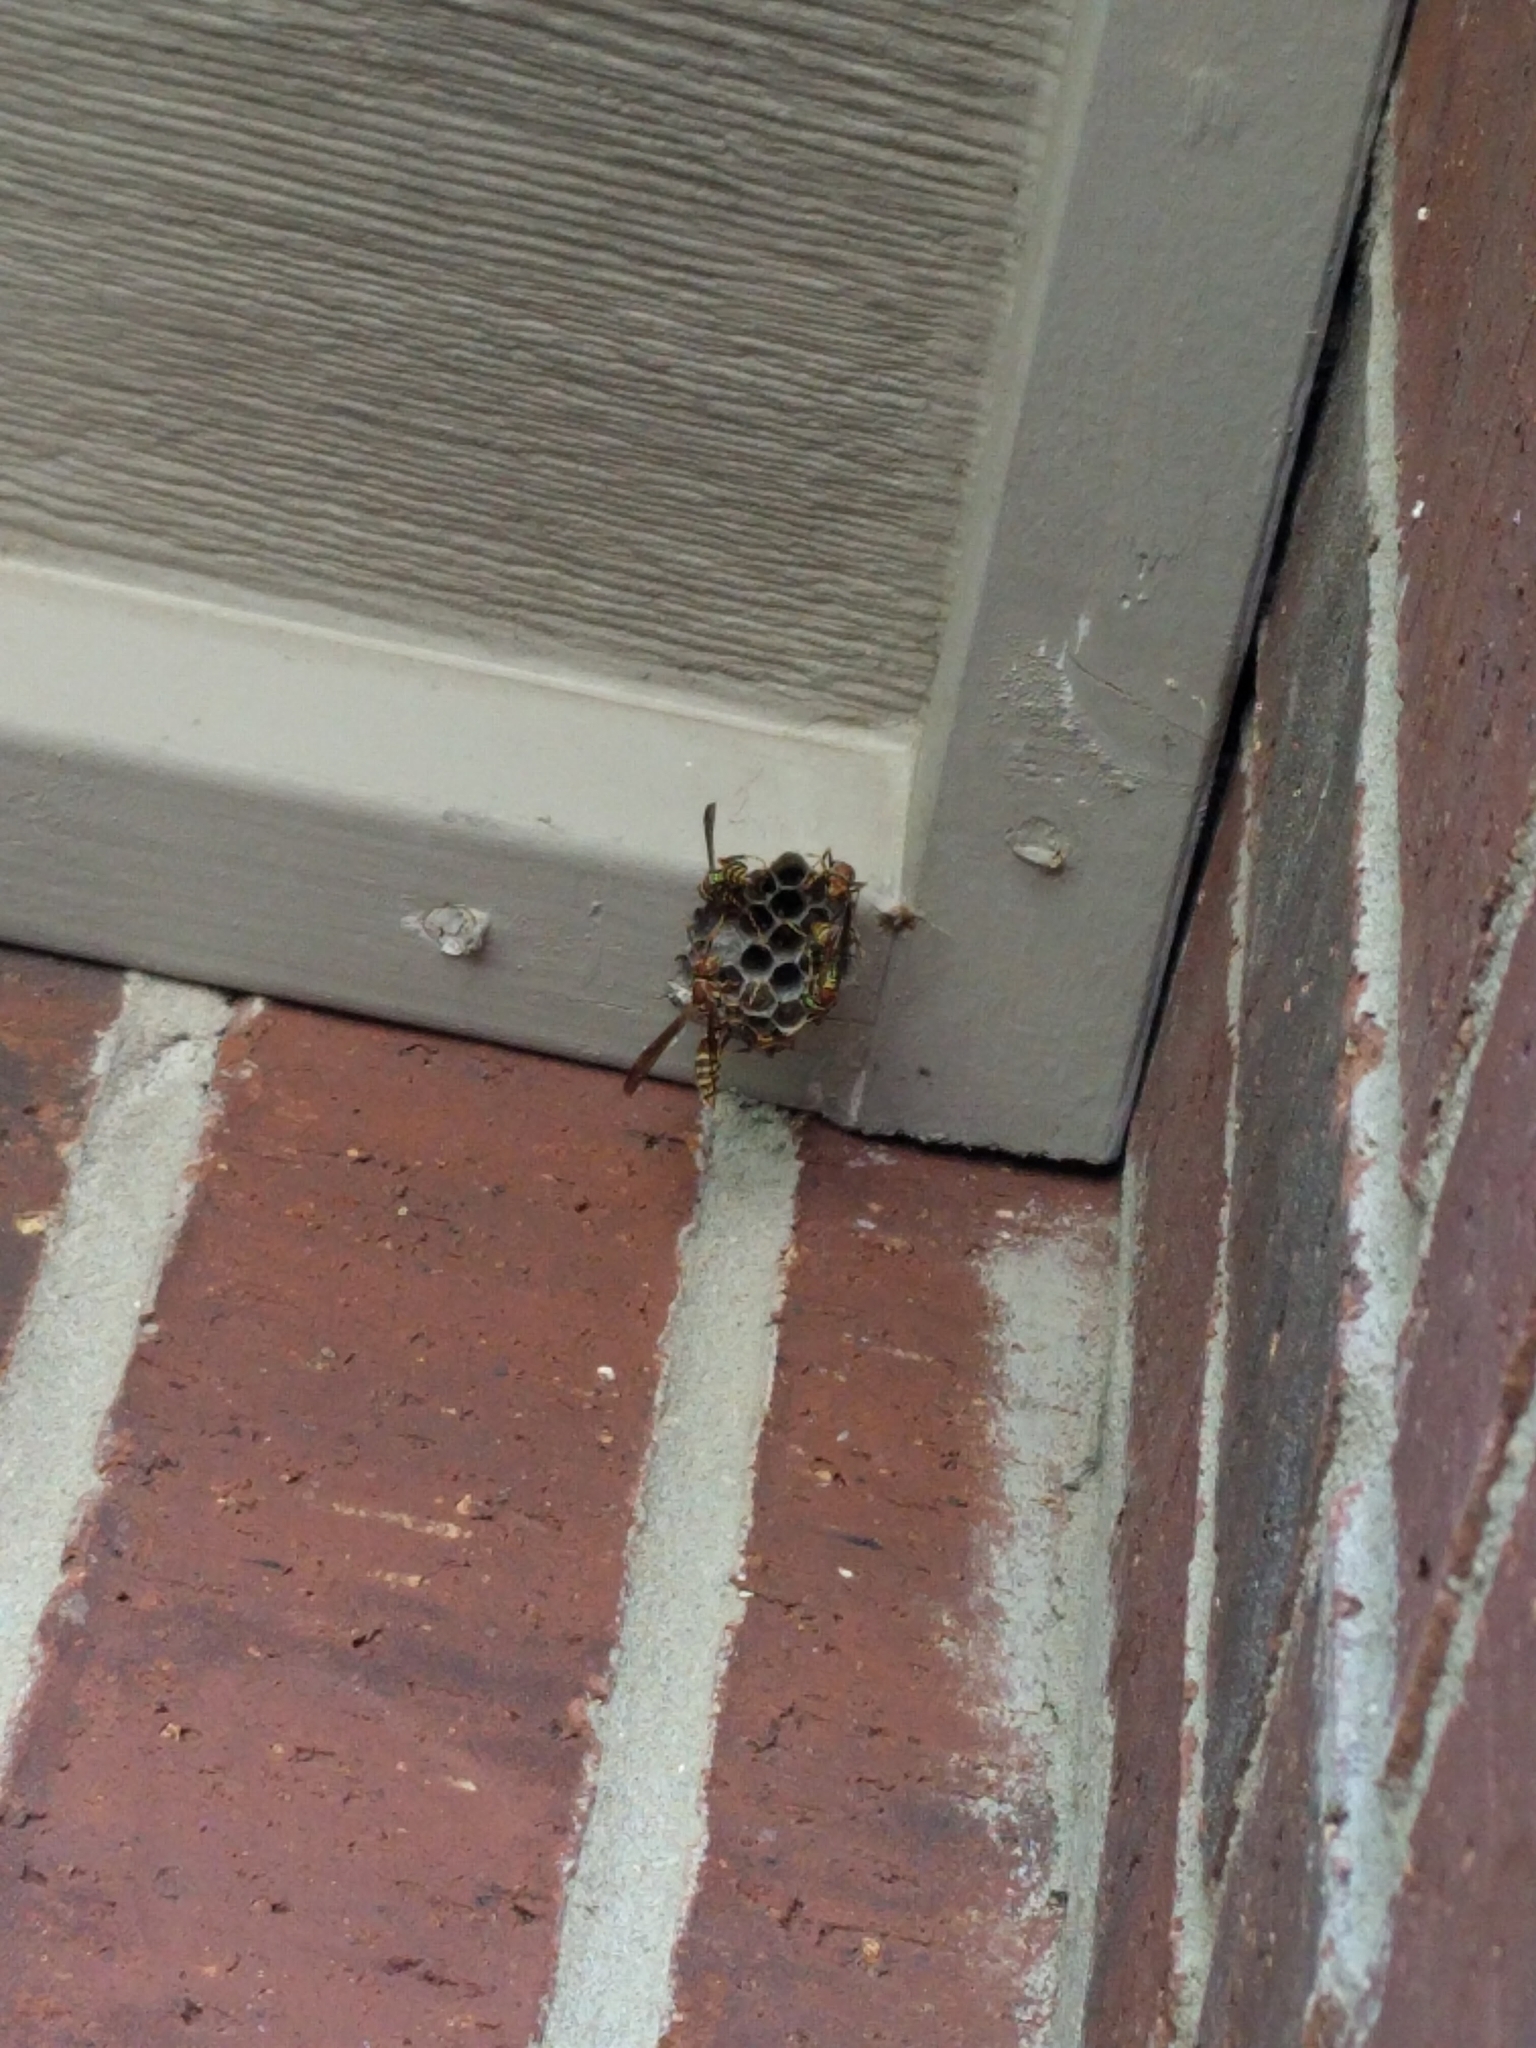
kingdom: Animalia
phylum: Arthropoda
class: Insecta
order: Hymenoptera
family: Eumenidae
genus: Polistes
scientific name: Polistes exclamans
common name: Paper wasp
